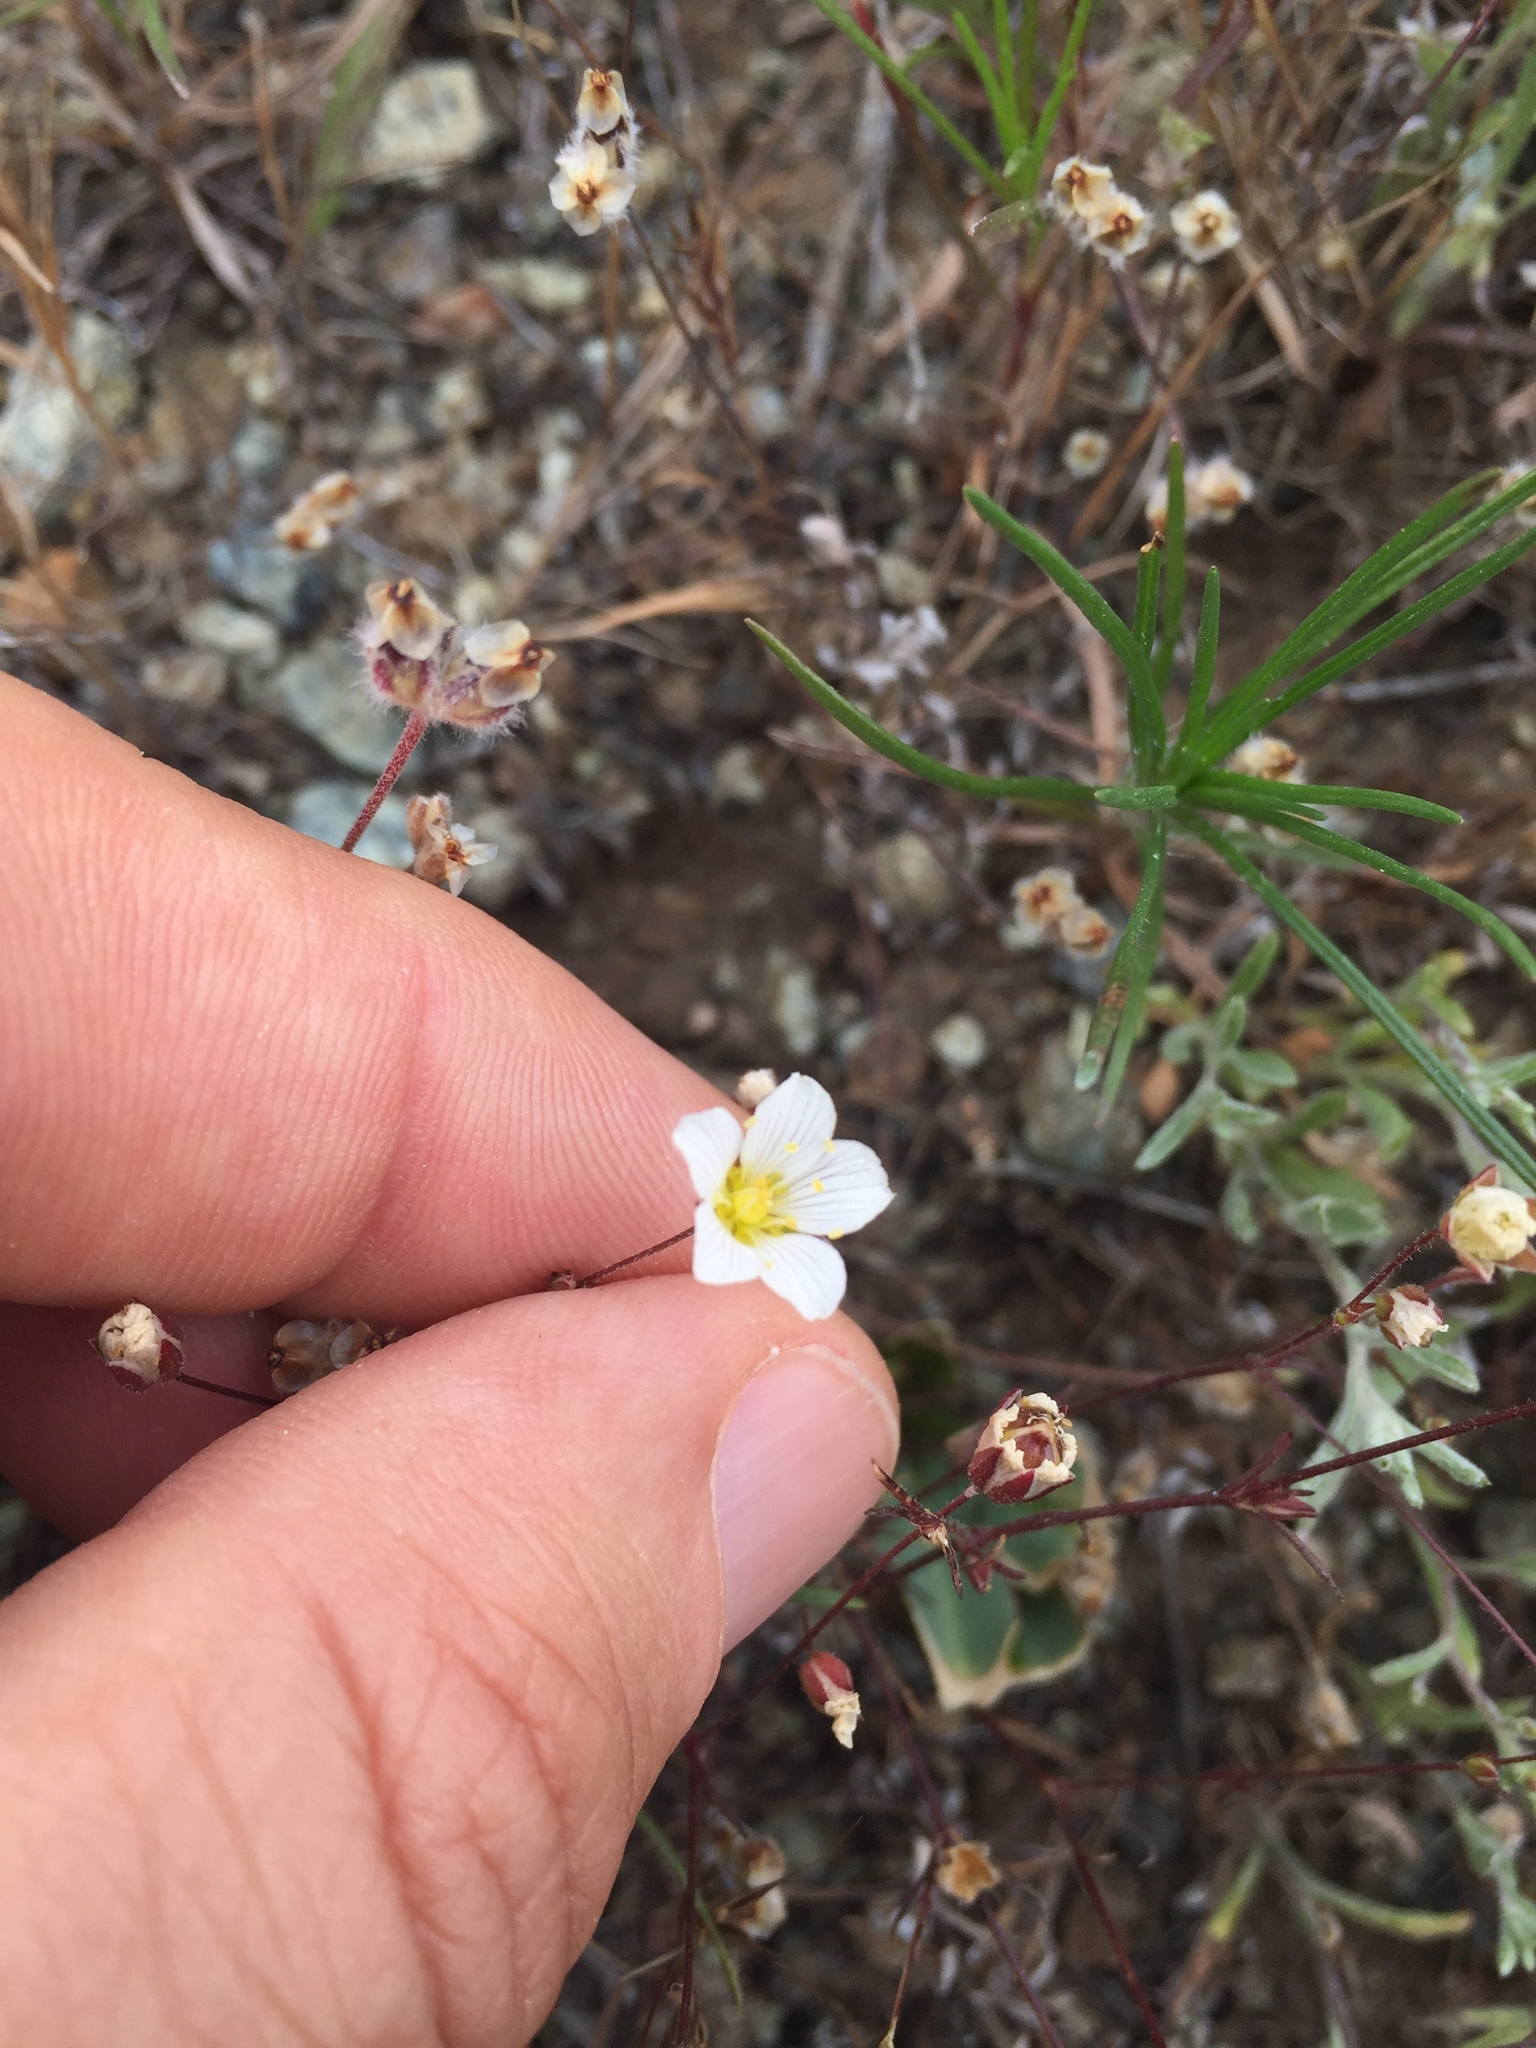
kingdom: Plantae
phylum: Tracheophyta
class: Magnoliopsida
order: Caryophyllales
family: Caryophyllaceae
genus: Sabulina
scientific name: Sabulina douglasii
